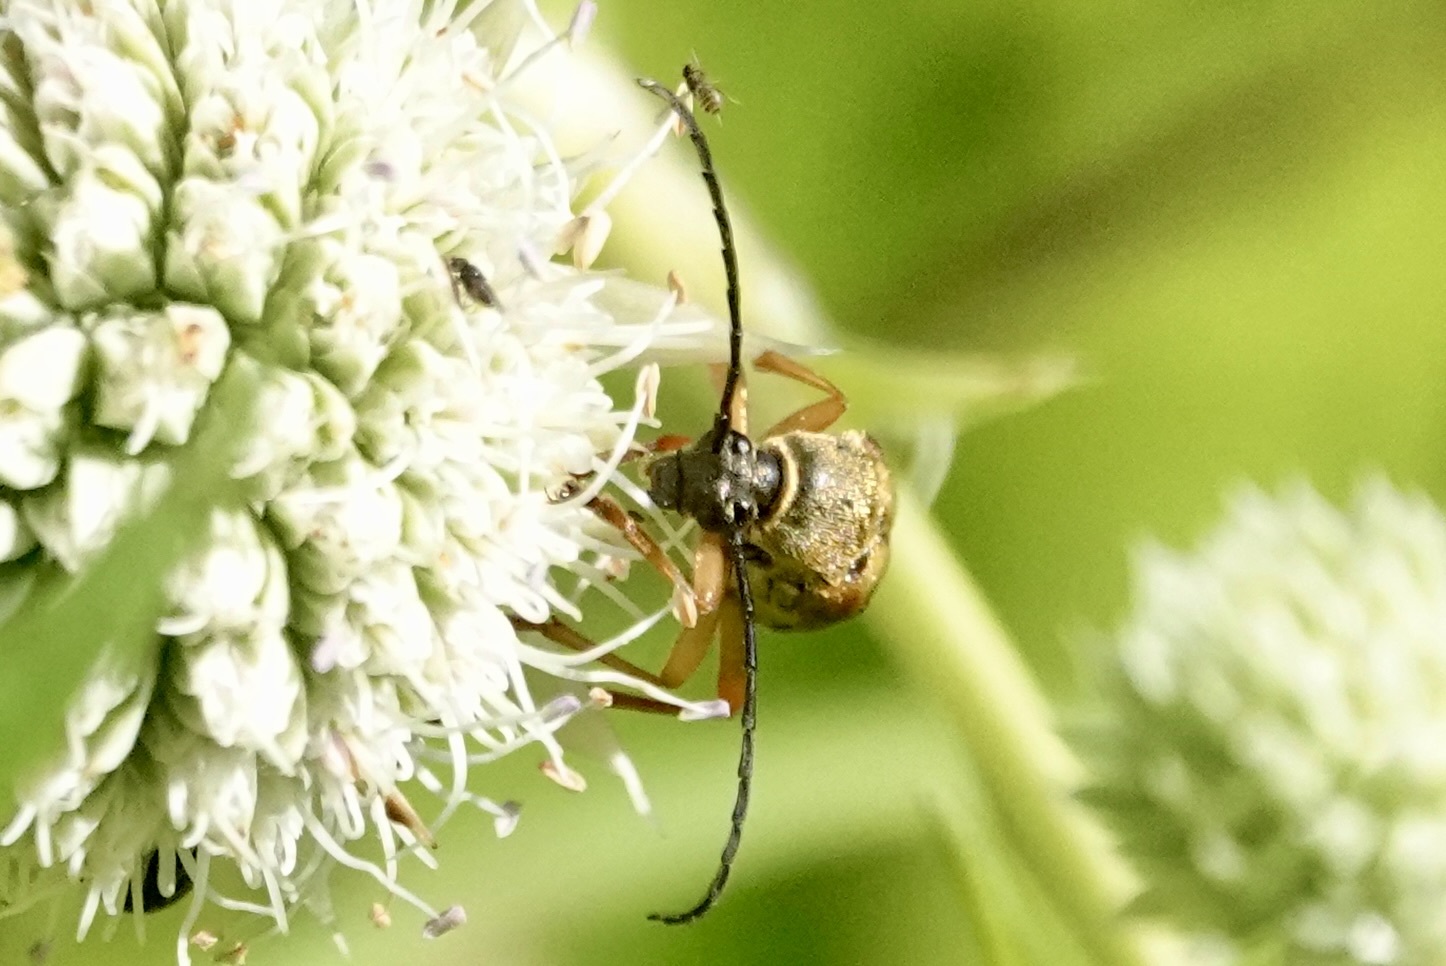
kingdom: Animalia
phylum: Arthropoda
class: Insecta
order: Coleoptera
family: Cerambycidae
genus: Typocerus
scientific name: Typocerus velutinus
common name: Banded longhorn beetle
